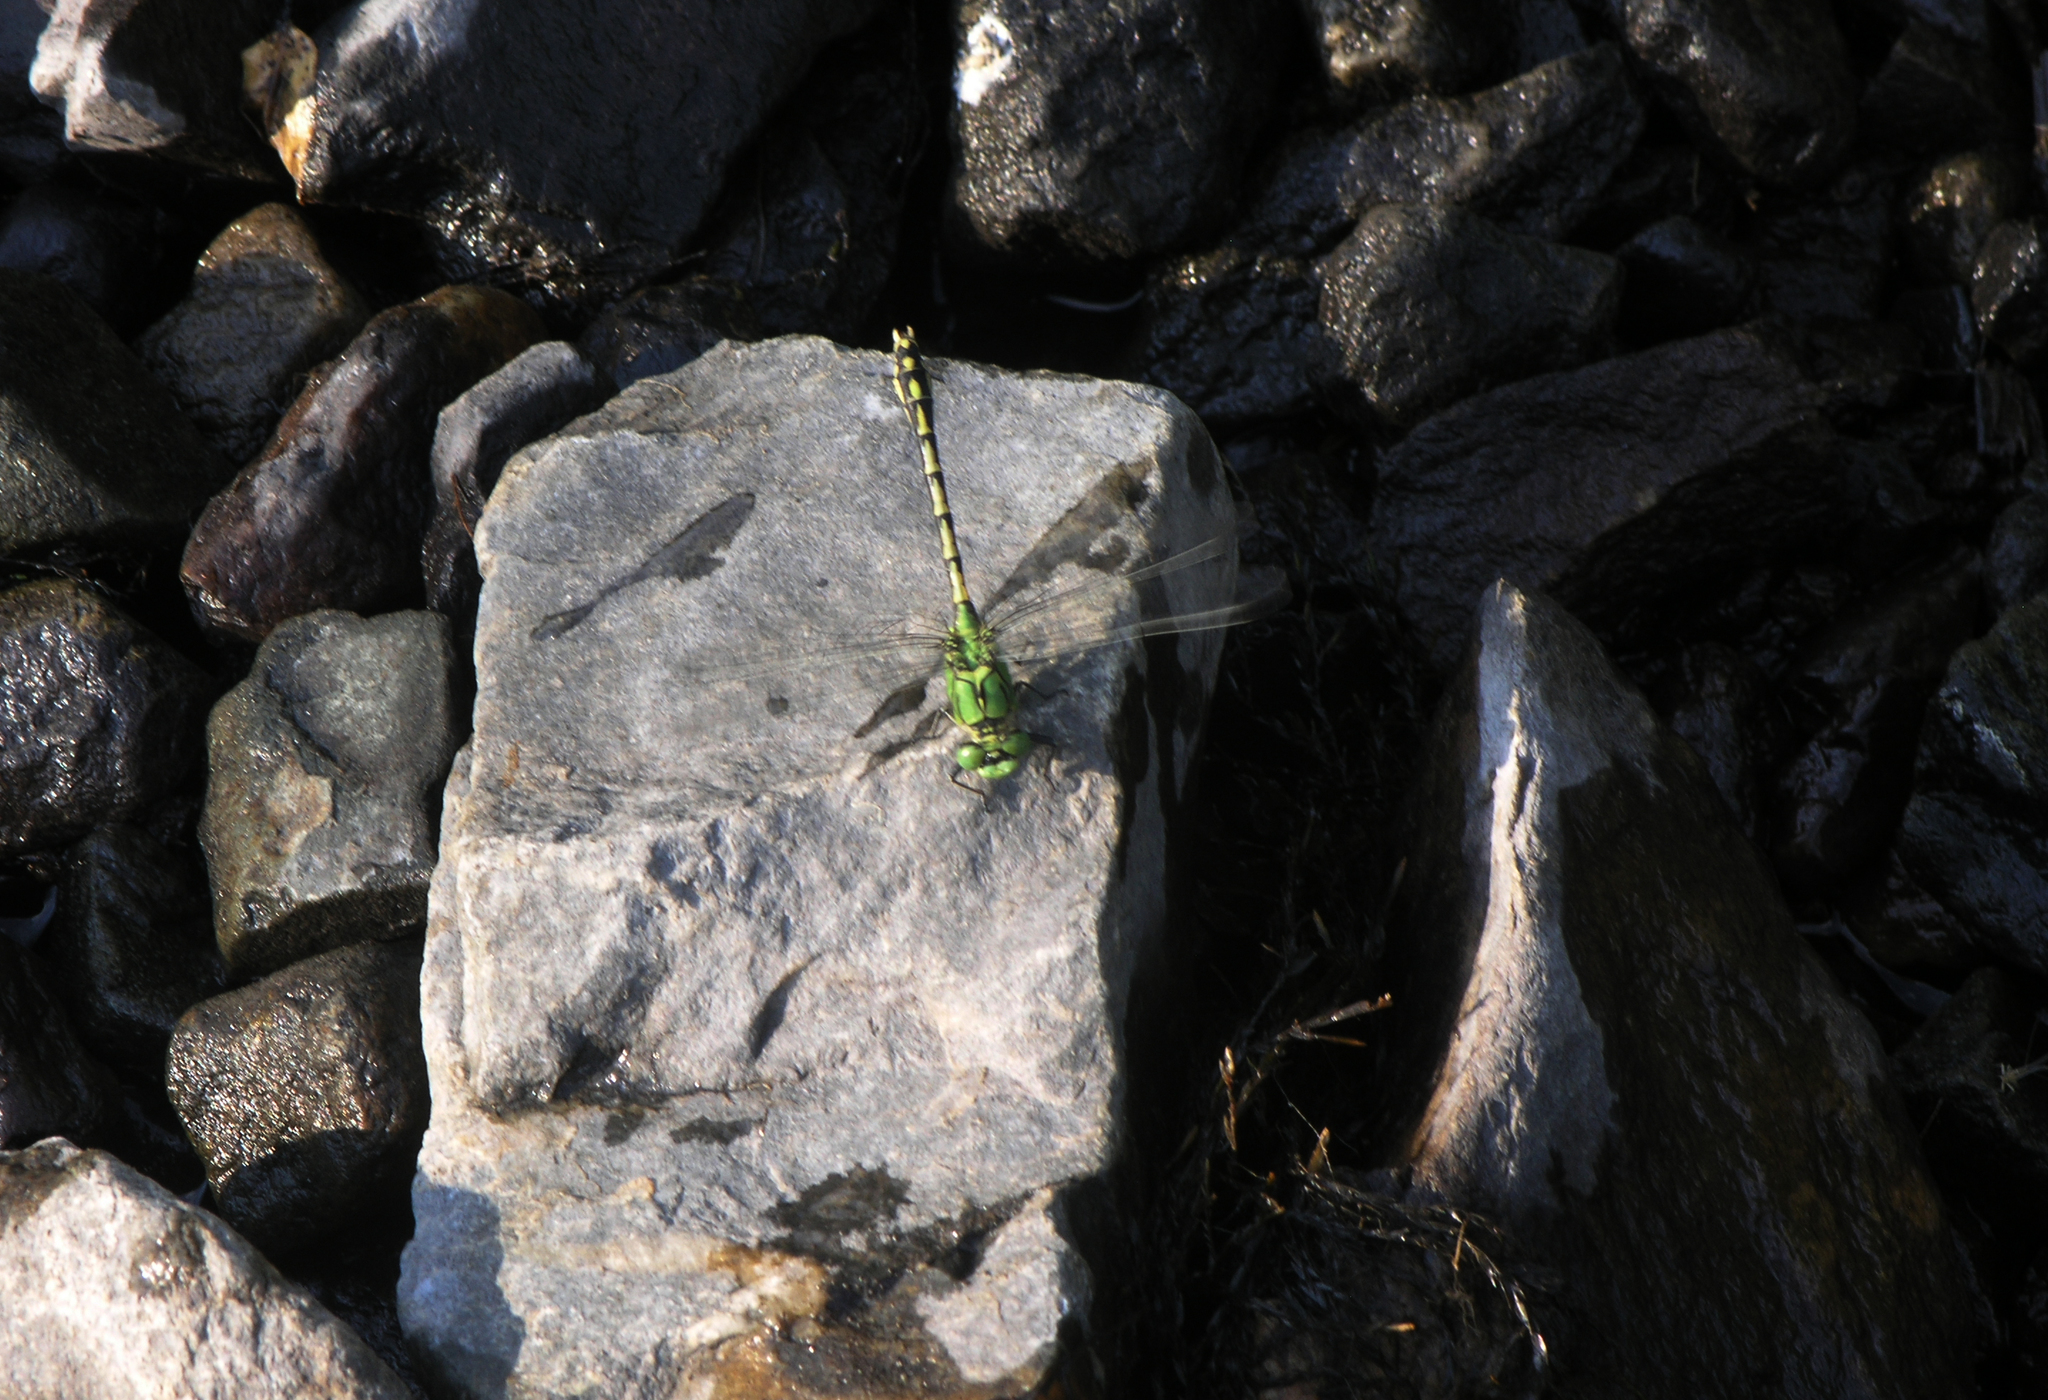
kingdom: Animalia
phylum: Arthropoda
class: Insecta
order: Odonata
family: Gomphidae
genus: Ophiogomphus
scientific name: Ophiogomphus cecilia
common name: Green snaketail
